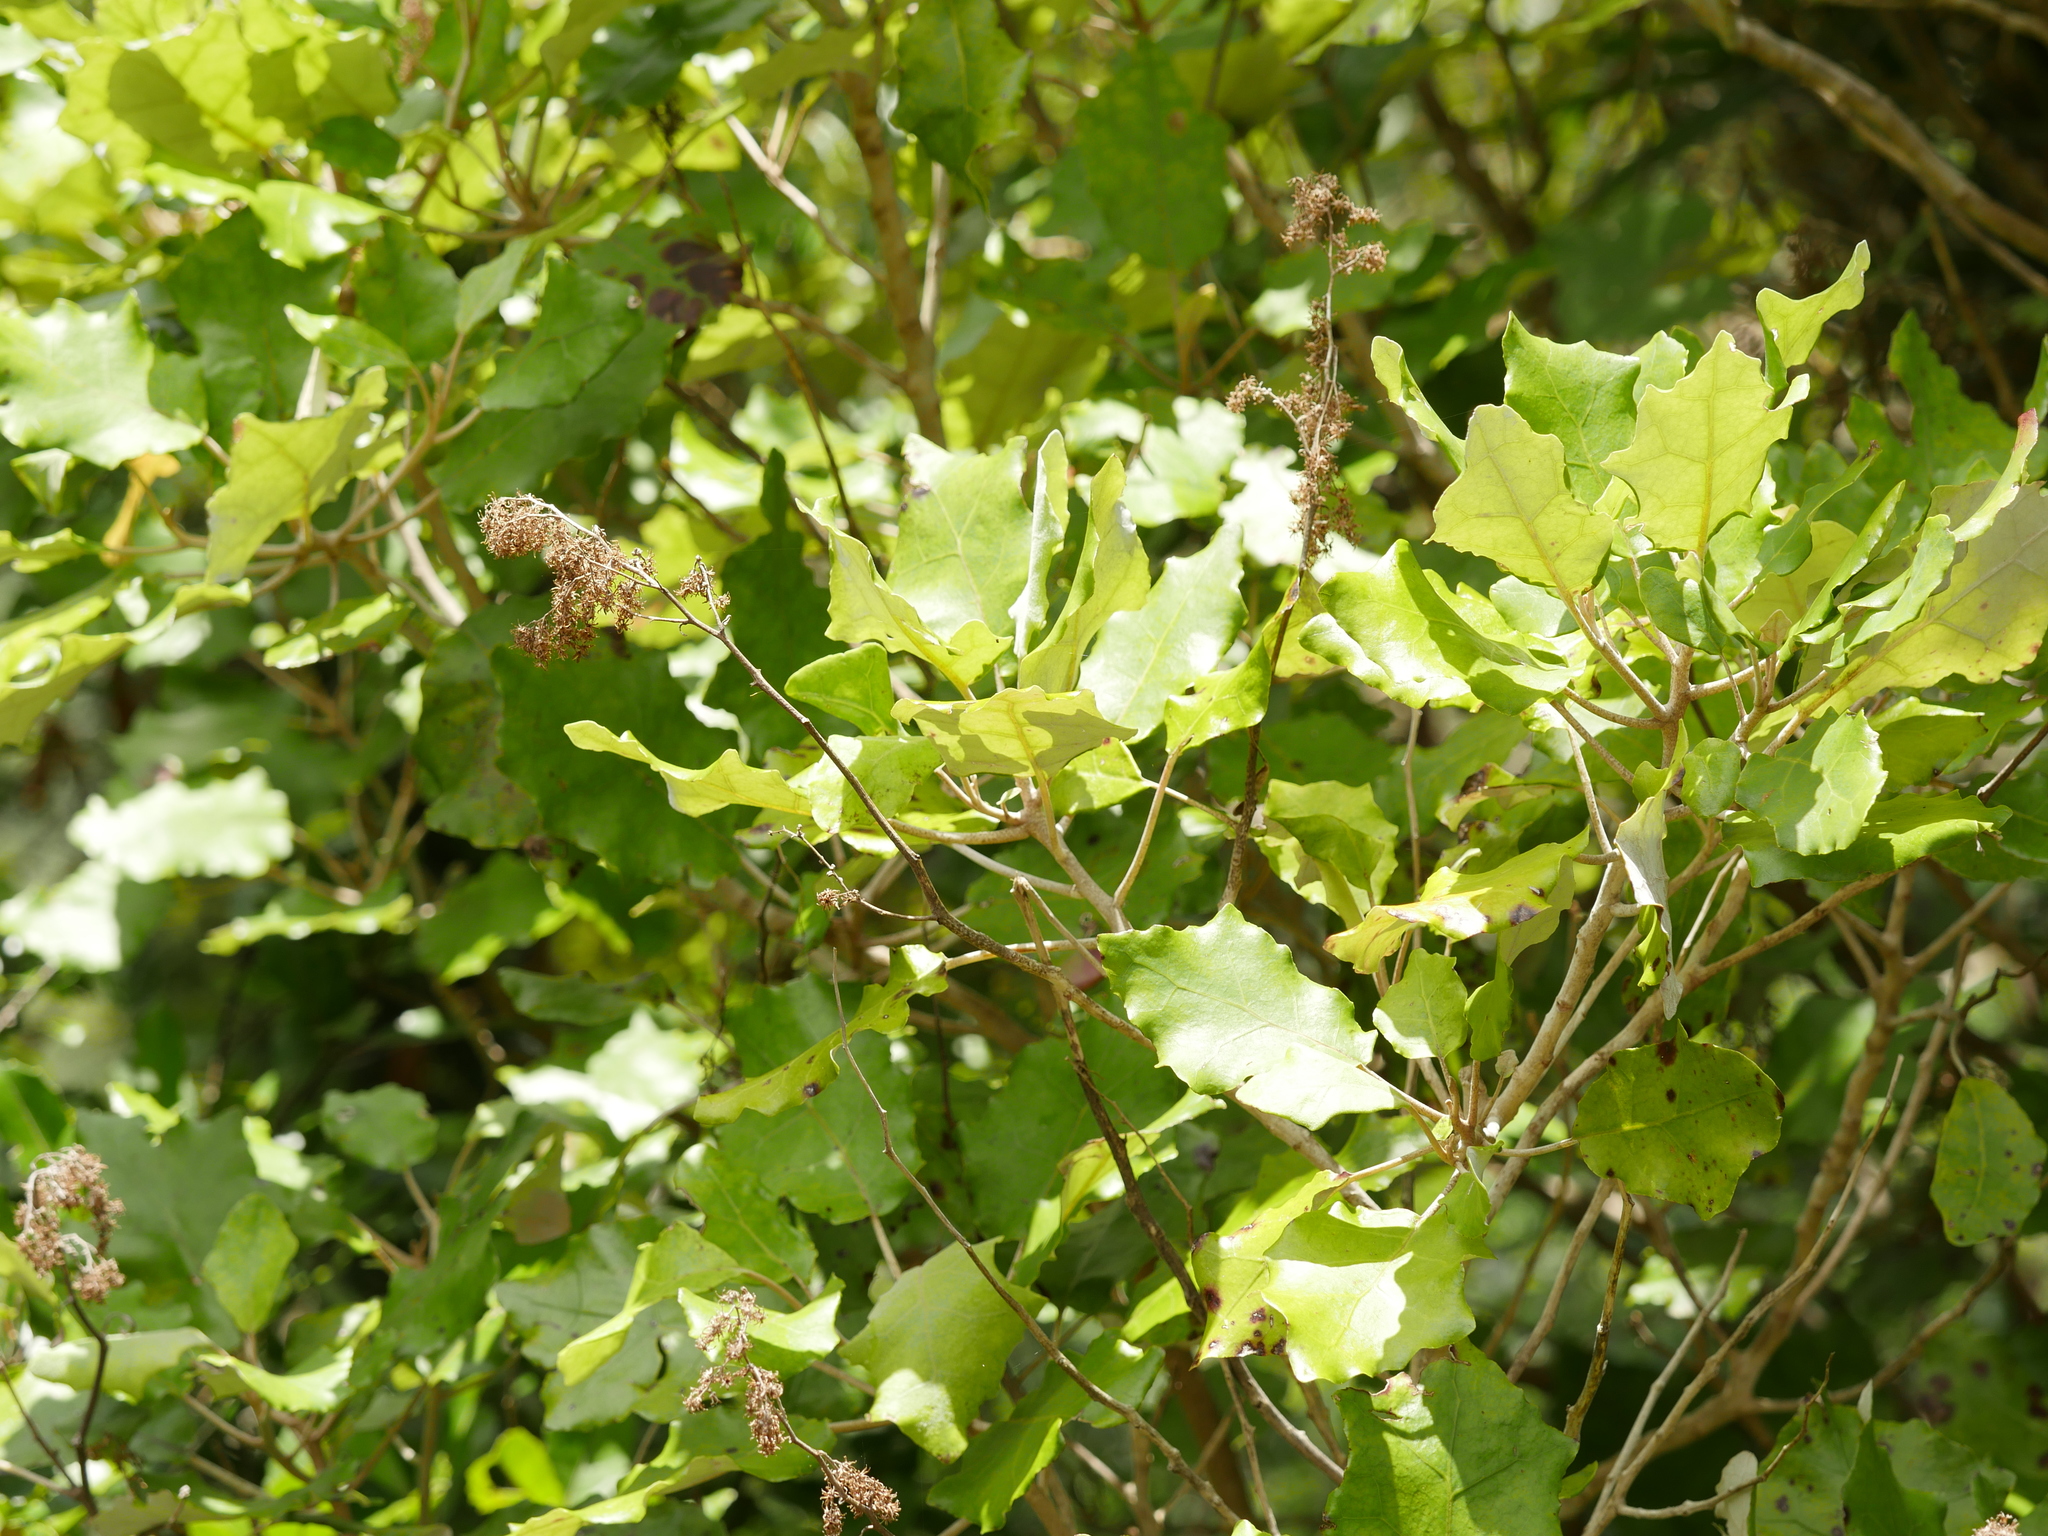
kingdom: Plantae
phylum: Tracheophyta
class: Magnoliopsida
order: Asterales
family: Asteraceae
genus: Brachyglottis
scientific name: Brachyglottis repanda
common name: Hedge ragwort
